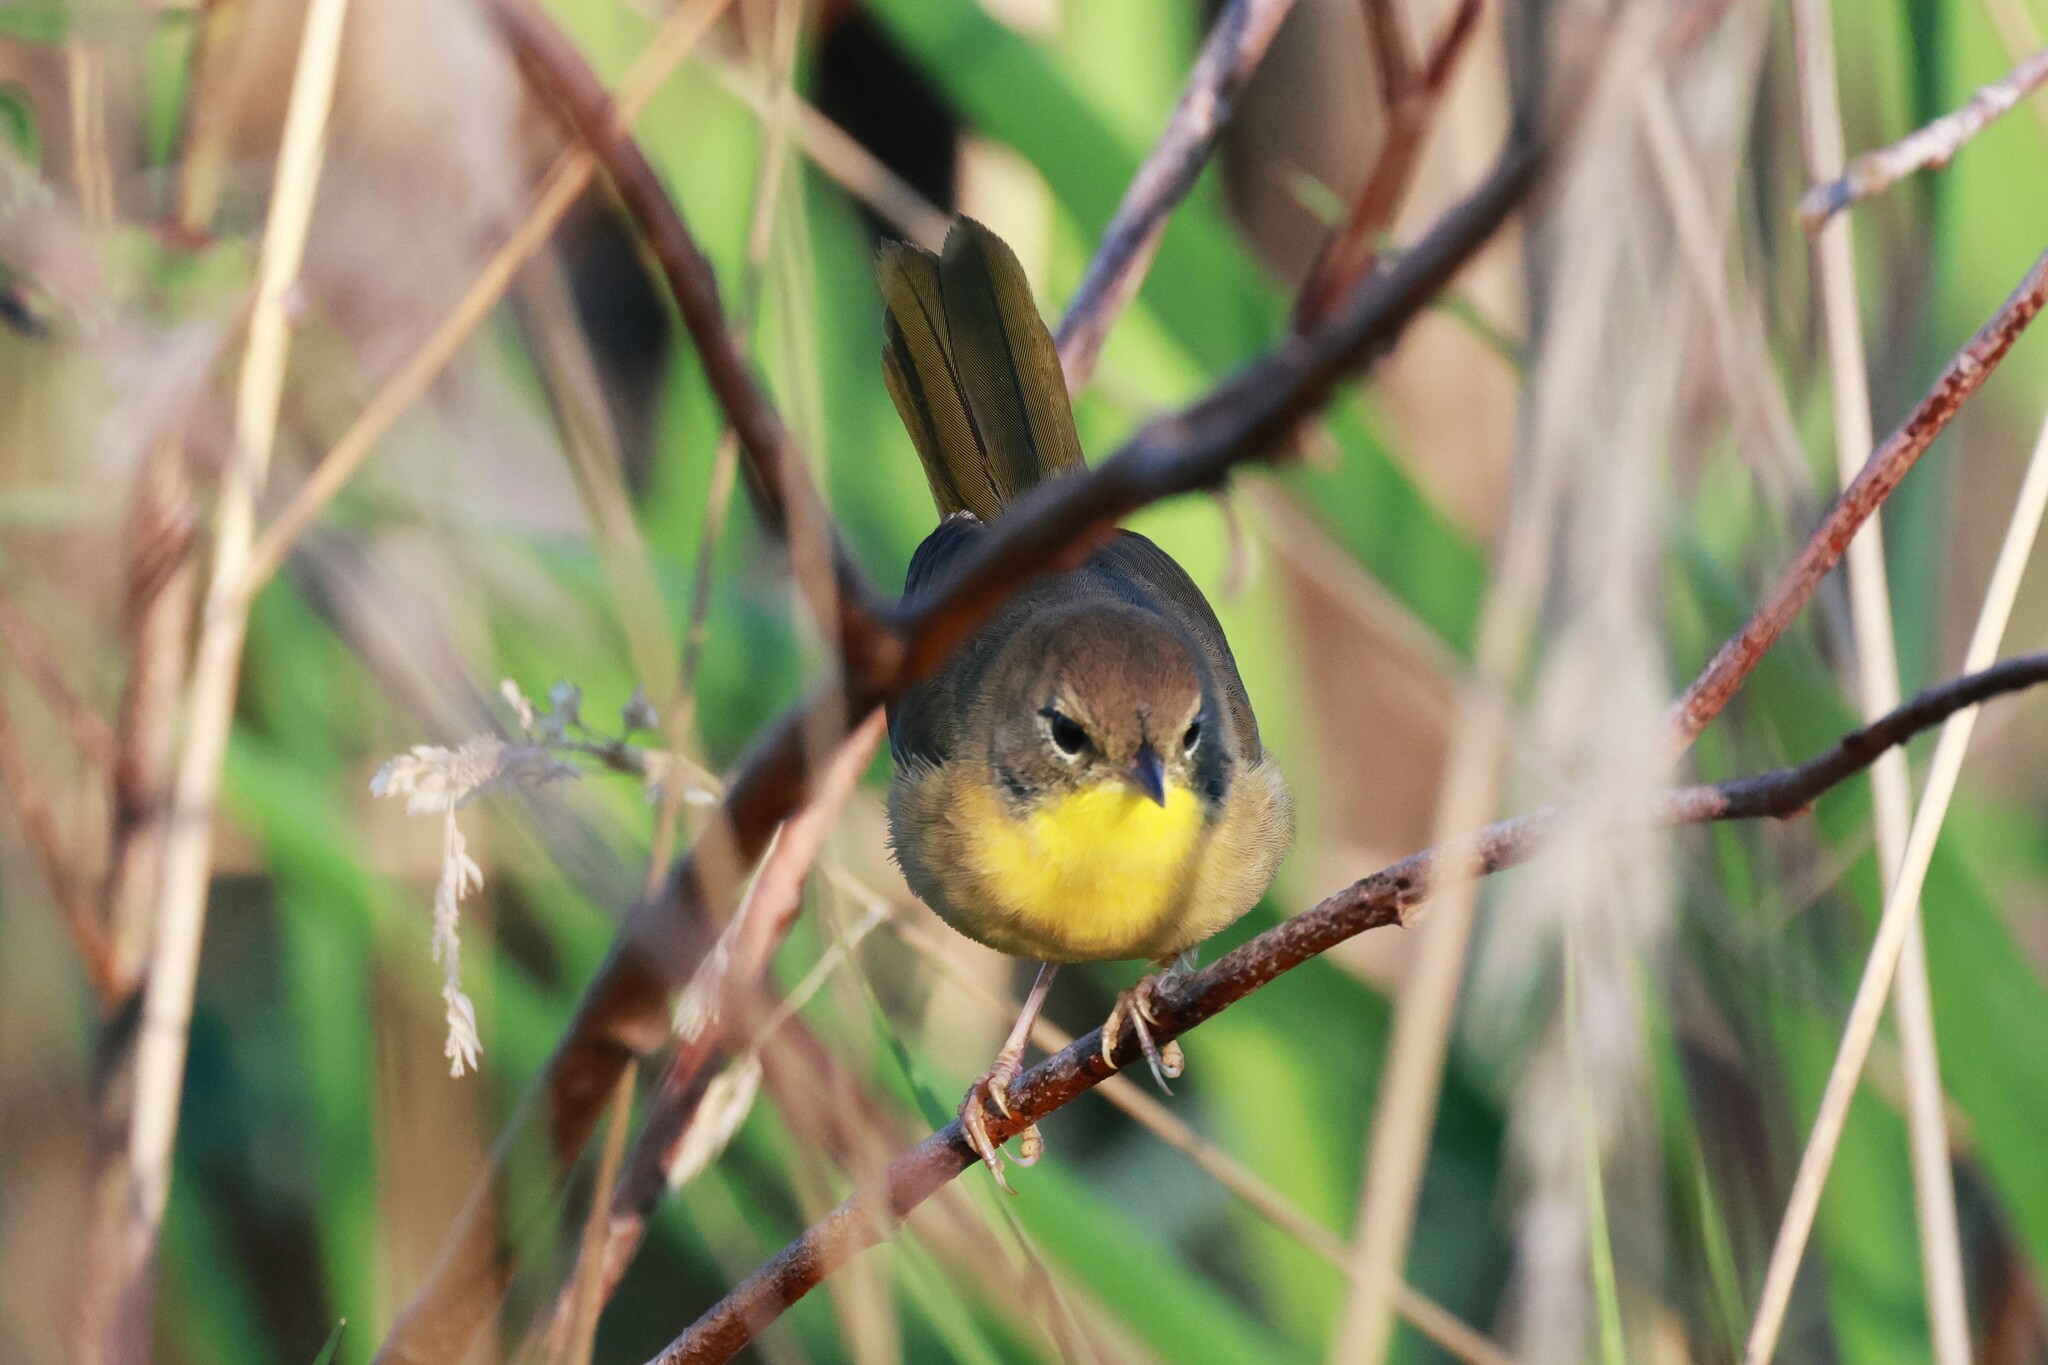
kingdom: Animalia
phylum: Chordata
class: Aves
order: Passeriformes
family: Parulidae
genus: Geothlypis
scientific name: Geothlypis trichas
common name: Common yellowthroat
